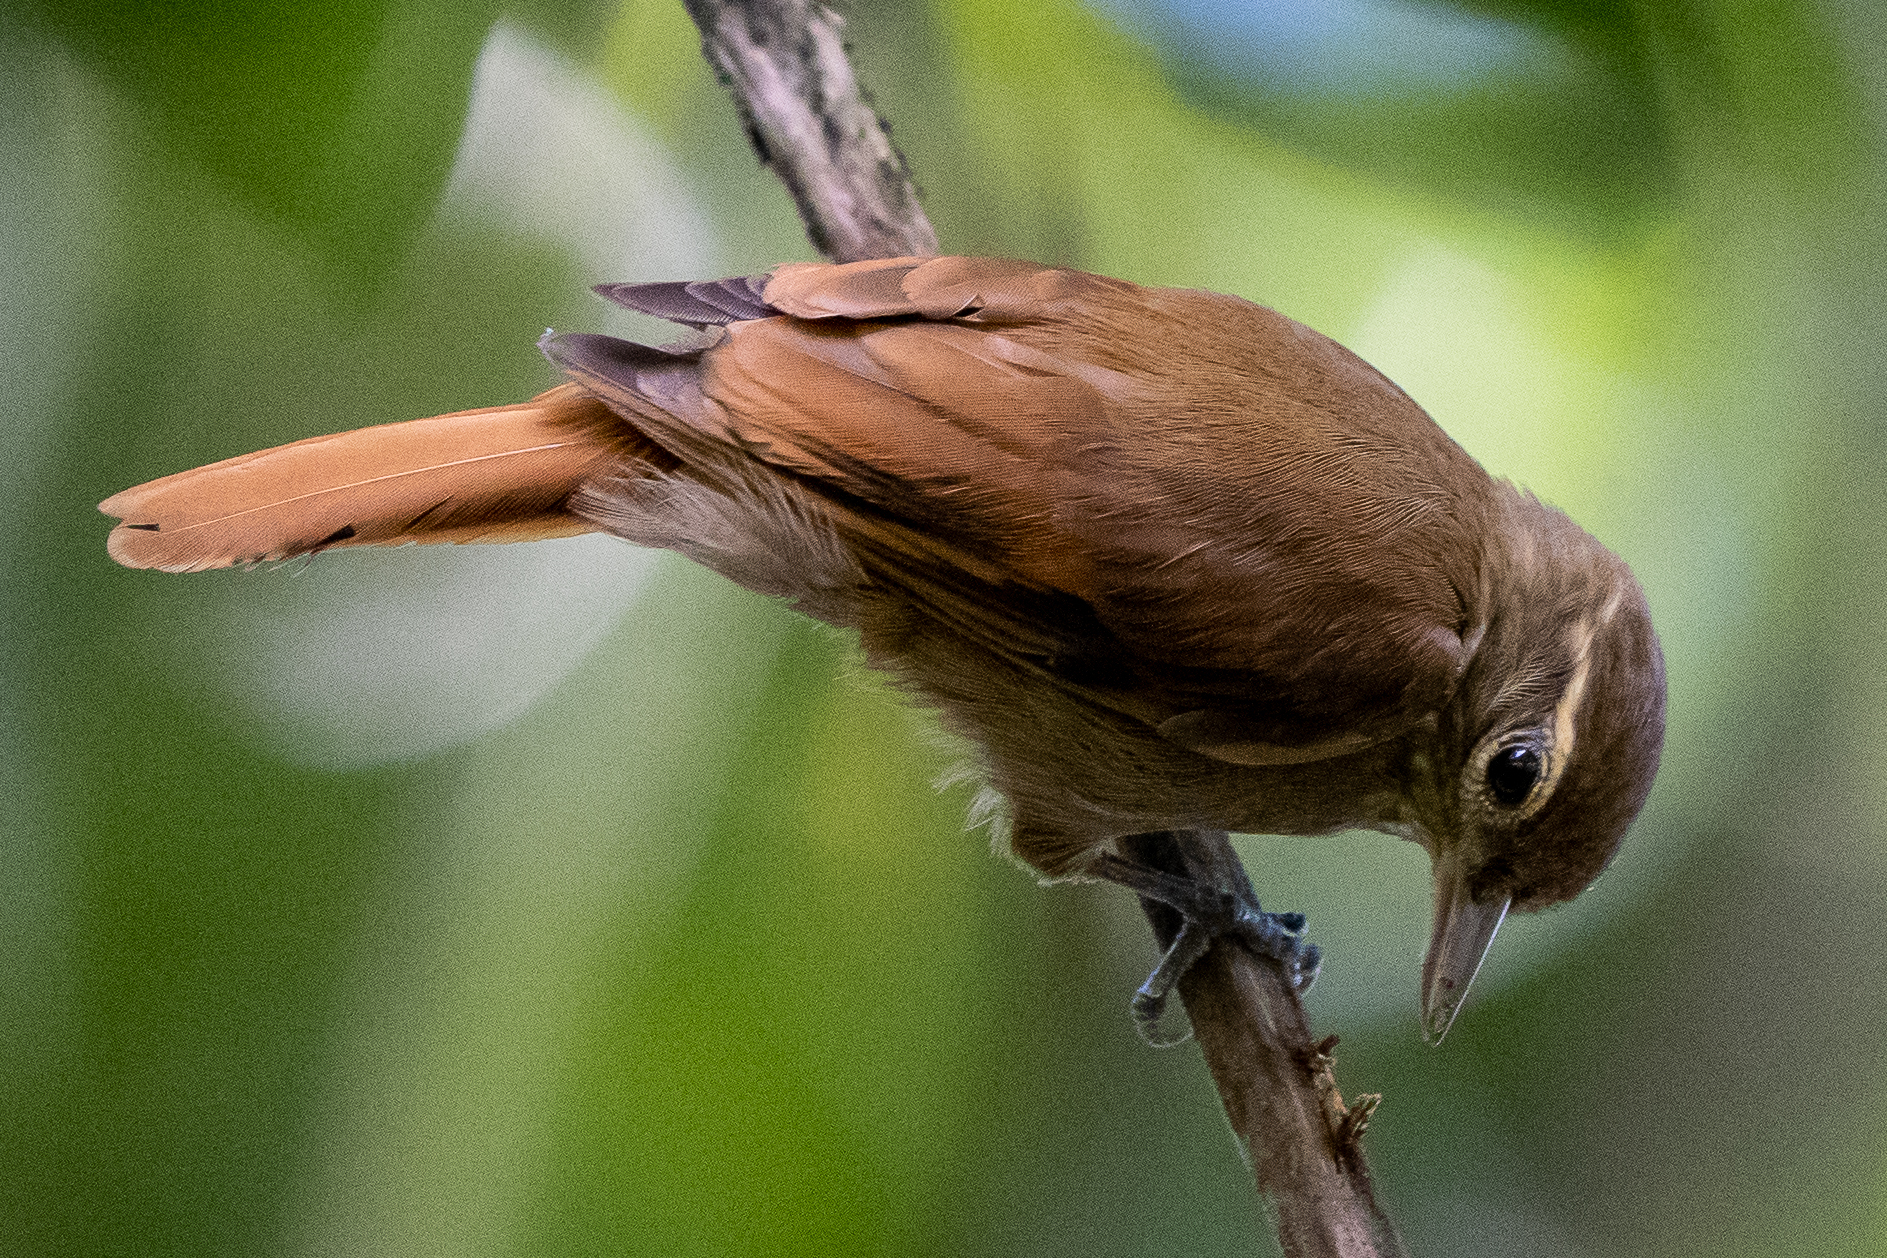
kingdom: Animalia
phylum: Chordata
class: Aves
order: Passeriformes
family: Furnariidae
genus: Xenops
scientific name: Xenops minutus
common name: Plain xenops
